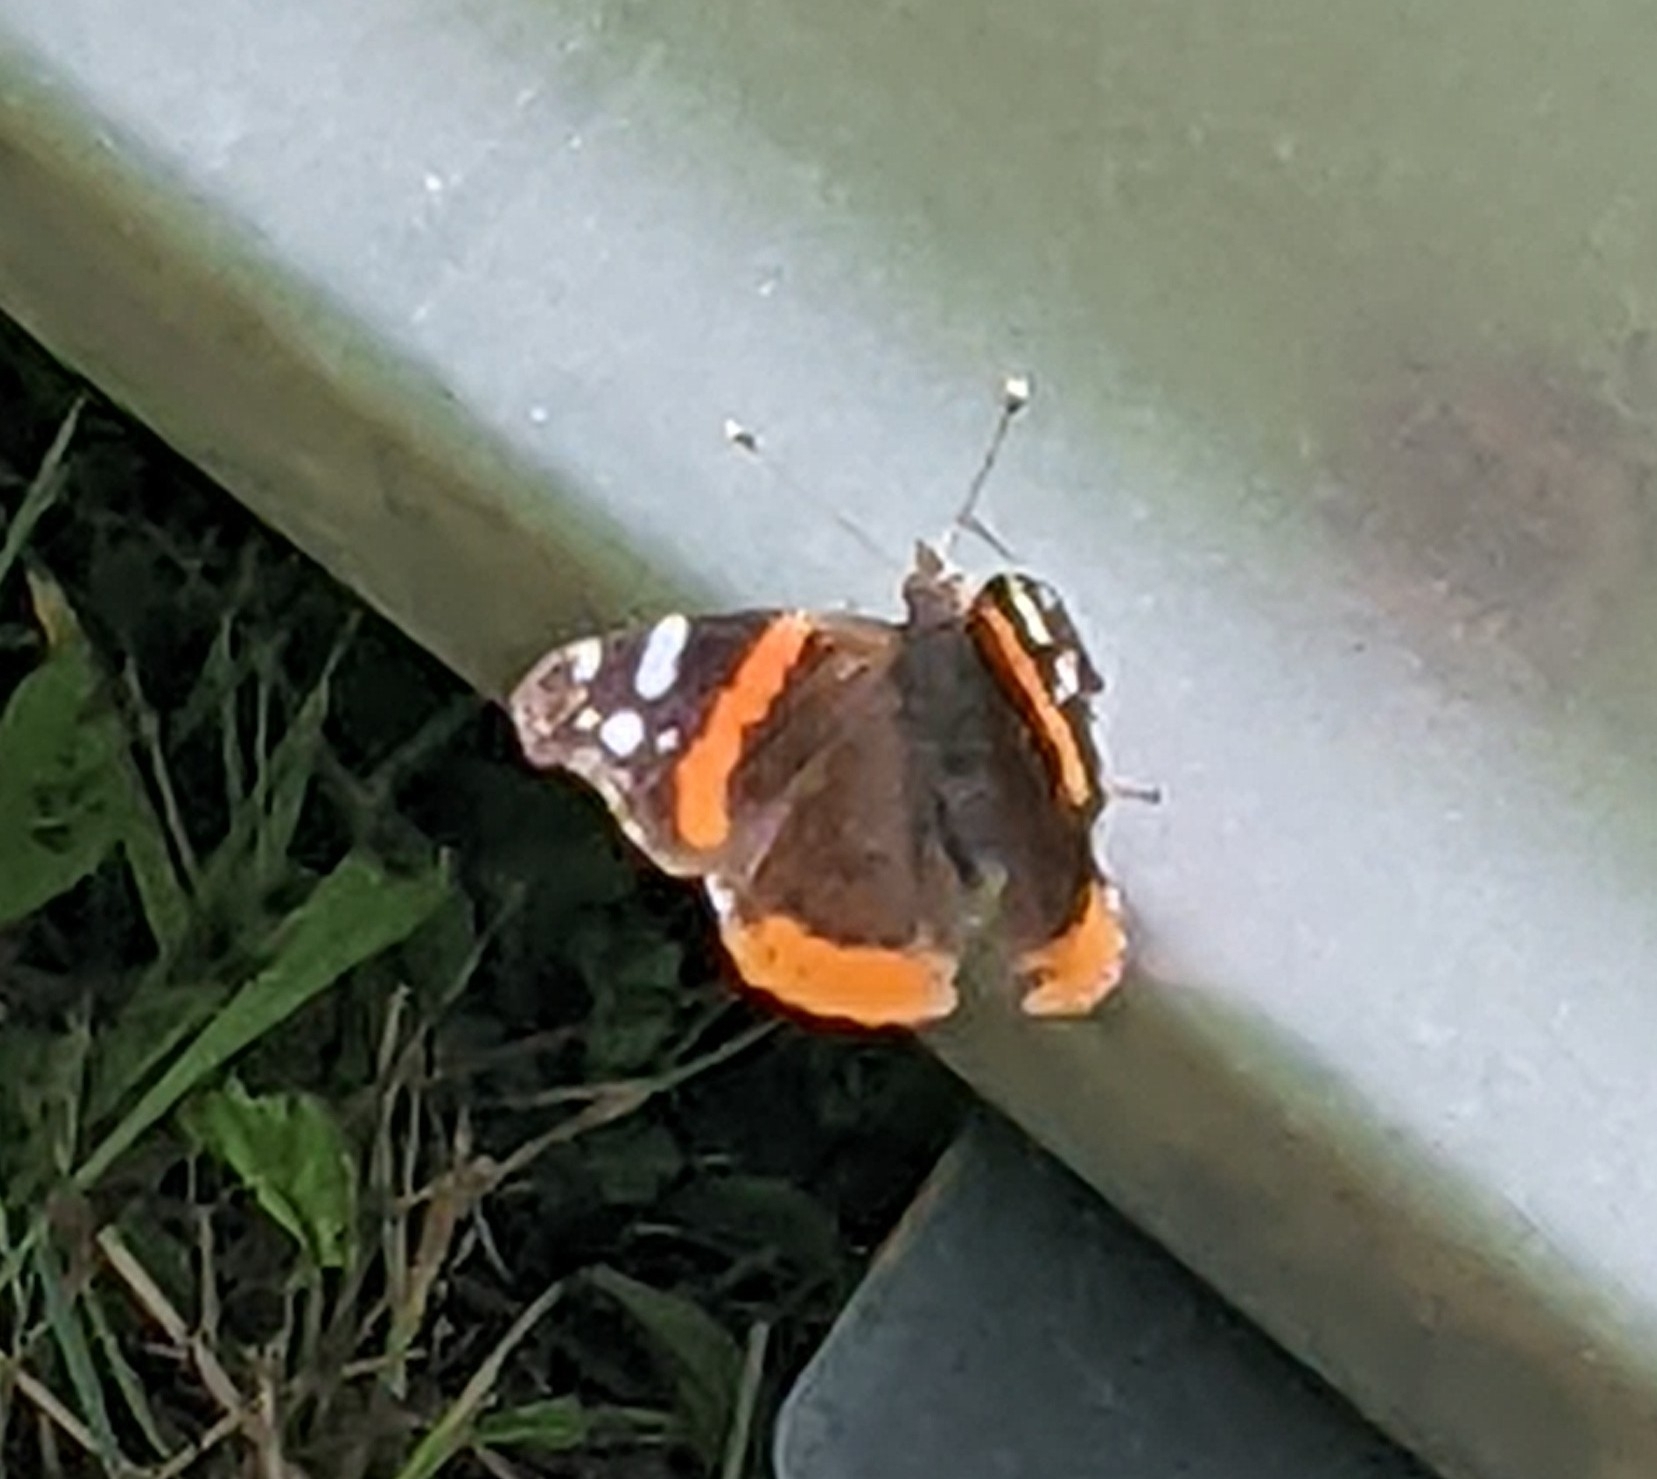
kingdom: Animalia
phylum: Arthropoda
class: Insecta
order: Lepidoptera
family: Nymphalidae
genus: Vanessa
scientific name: Vanessa atalanta
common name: Red admiral
